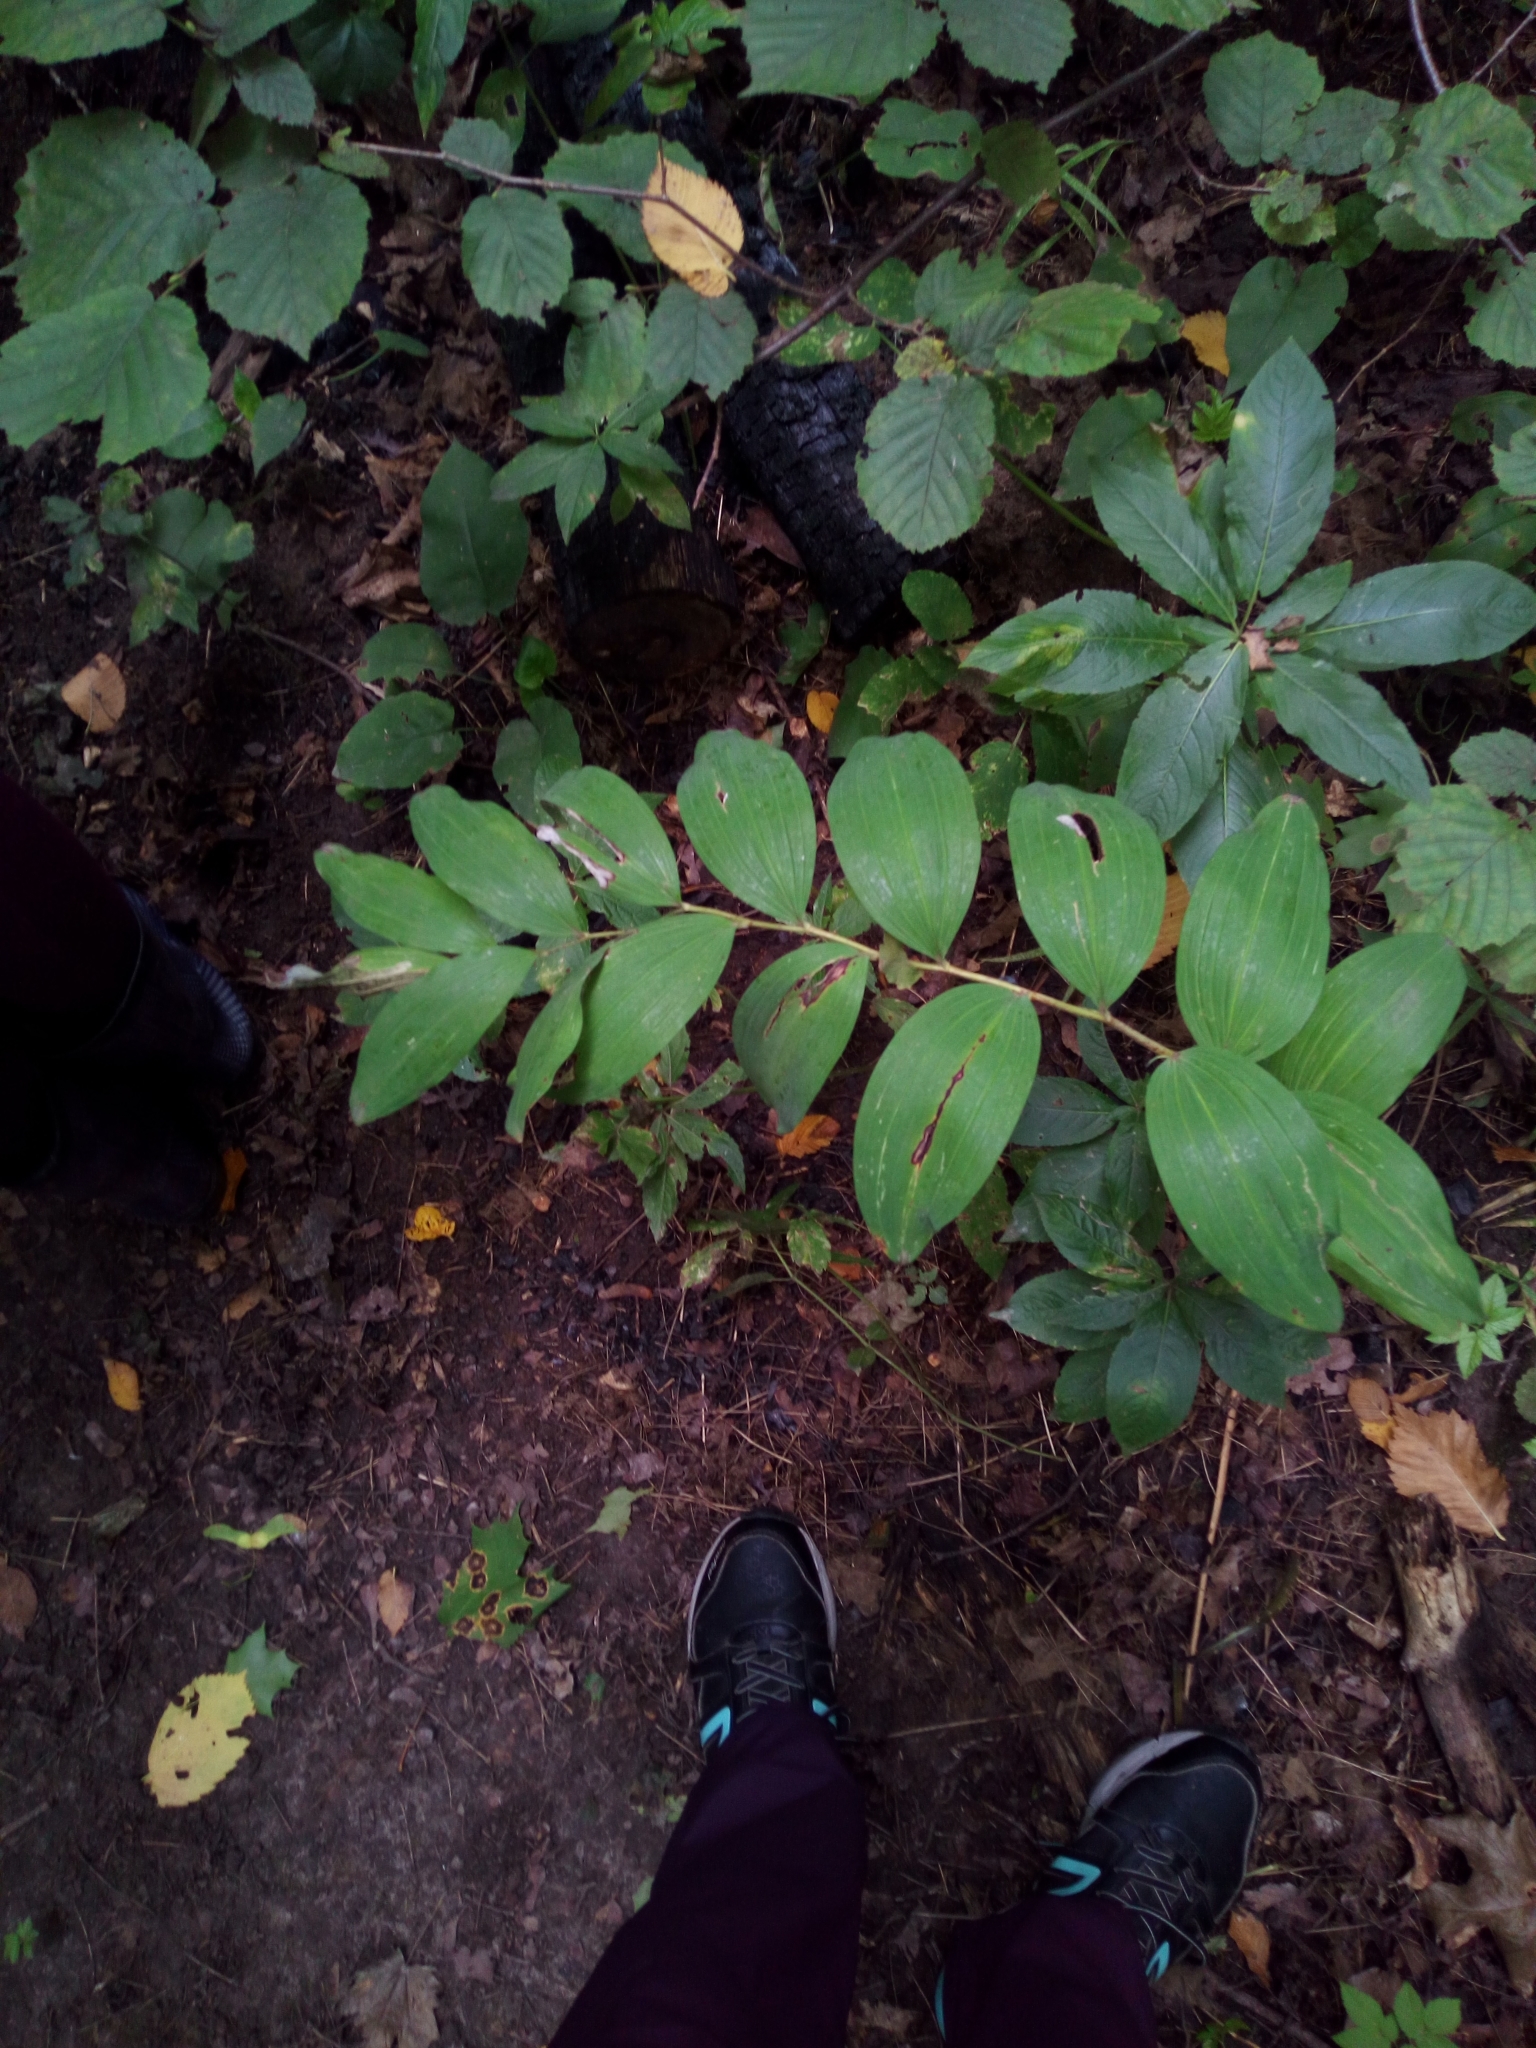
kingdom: Plantae
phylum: Tracheophyta
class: Liliopsida
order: Asparagales
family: Asparagaceae
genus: Polygonatum
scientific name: Polygonatum multiflorum
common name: Solomon's-seal
